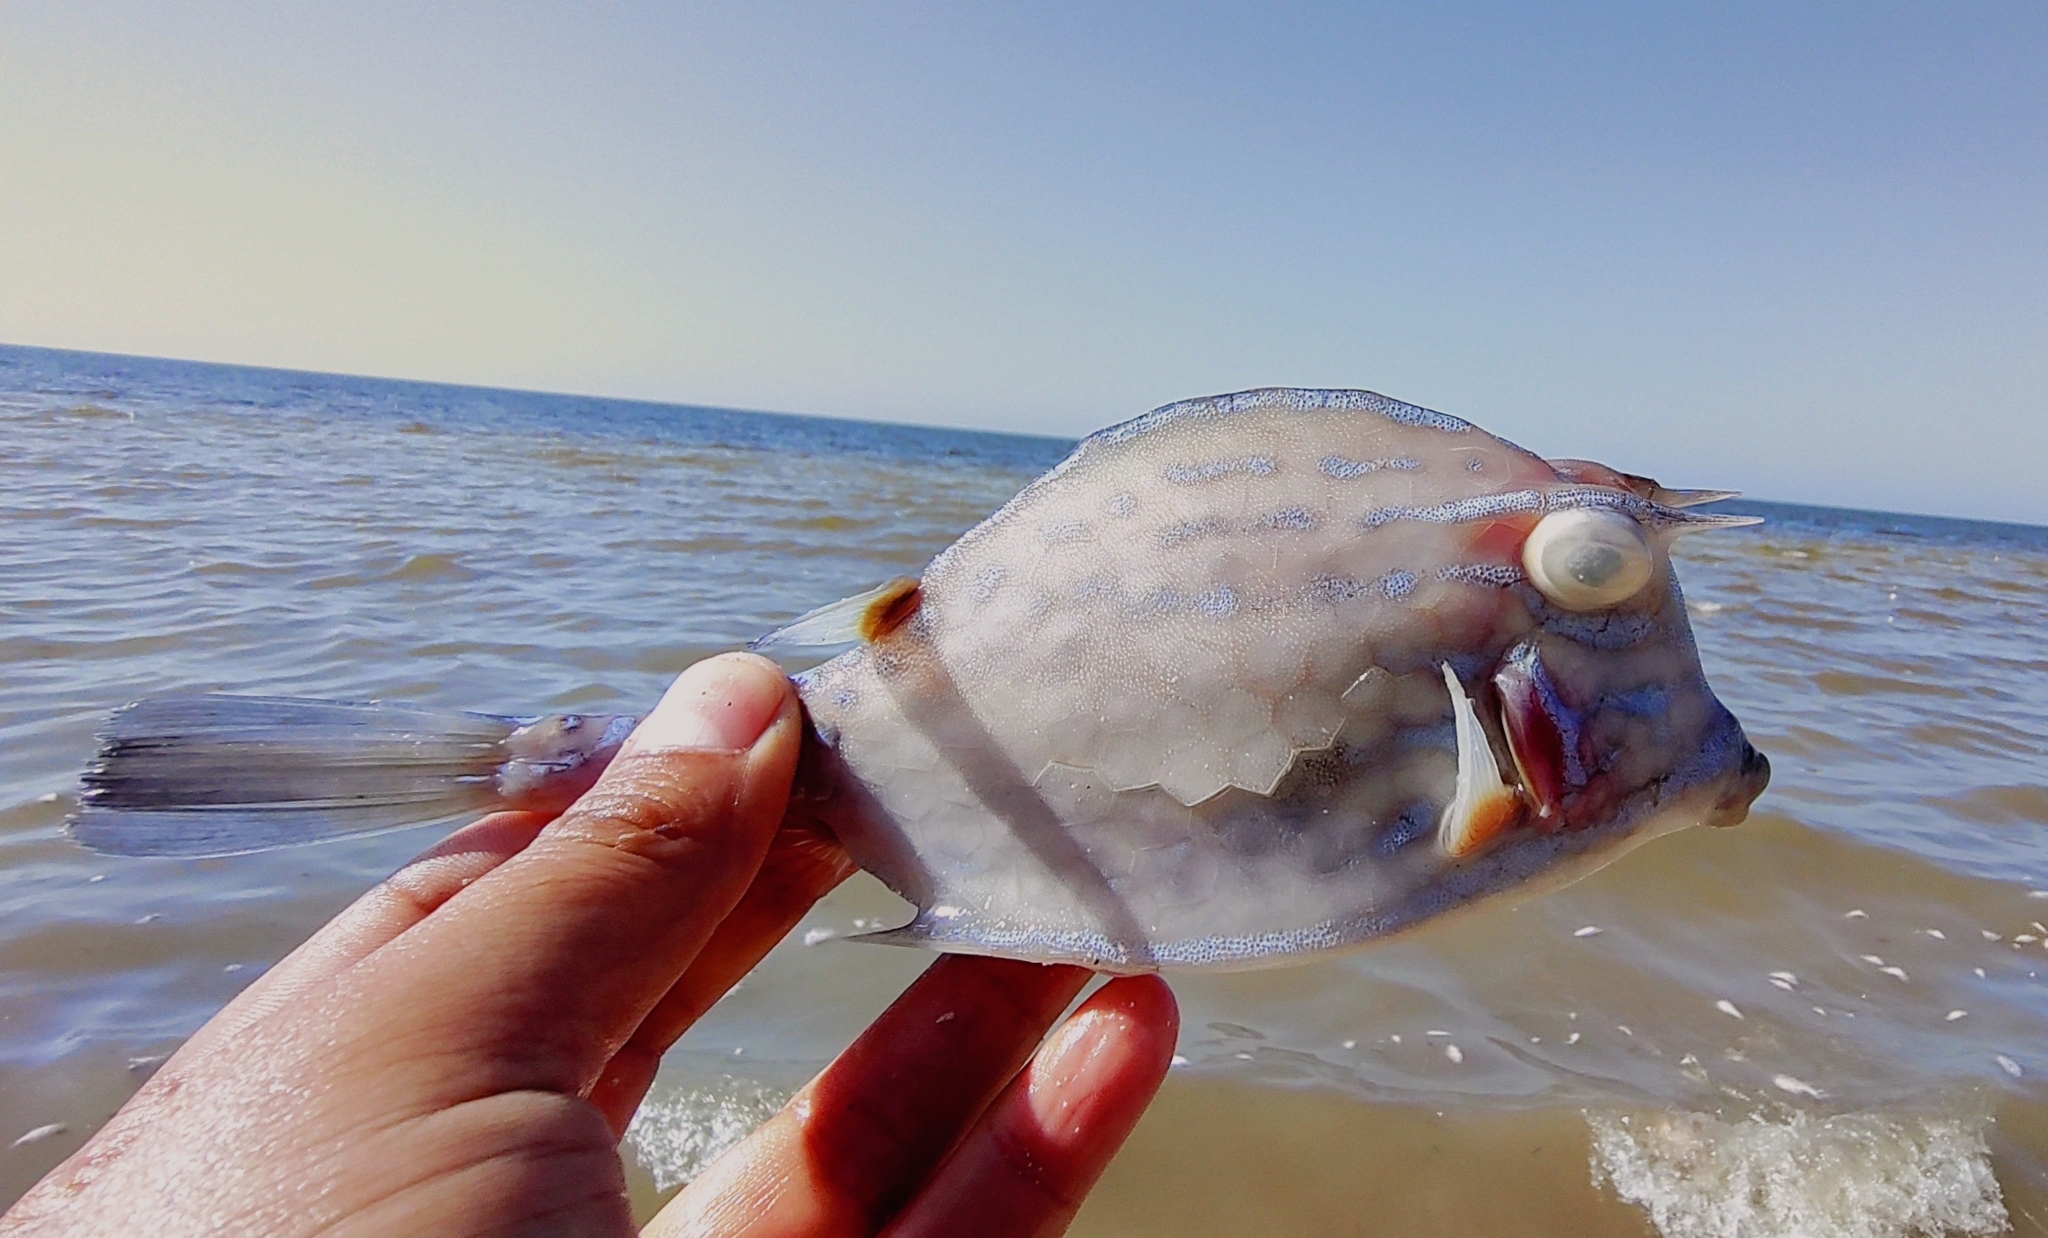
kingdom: Animalia
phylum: Chordata
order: Tetraodontiformes
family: Ostraciidae
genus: Acanthostracion
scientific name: Acanthostracion quadricornis
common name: Scrawled cowfish
